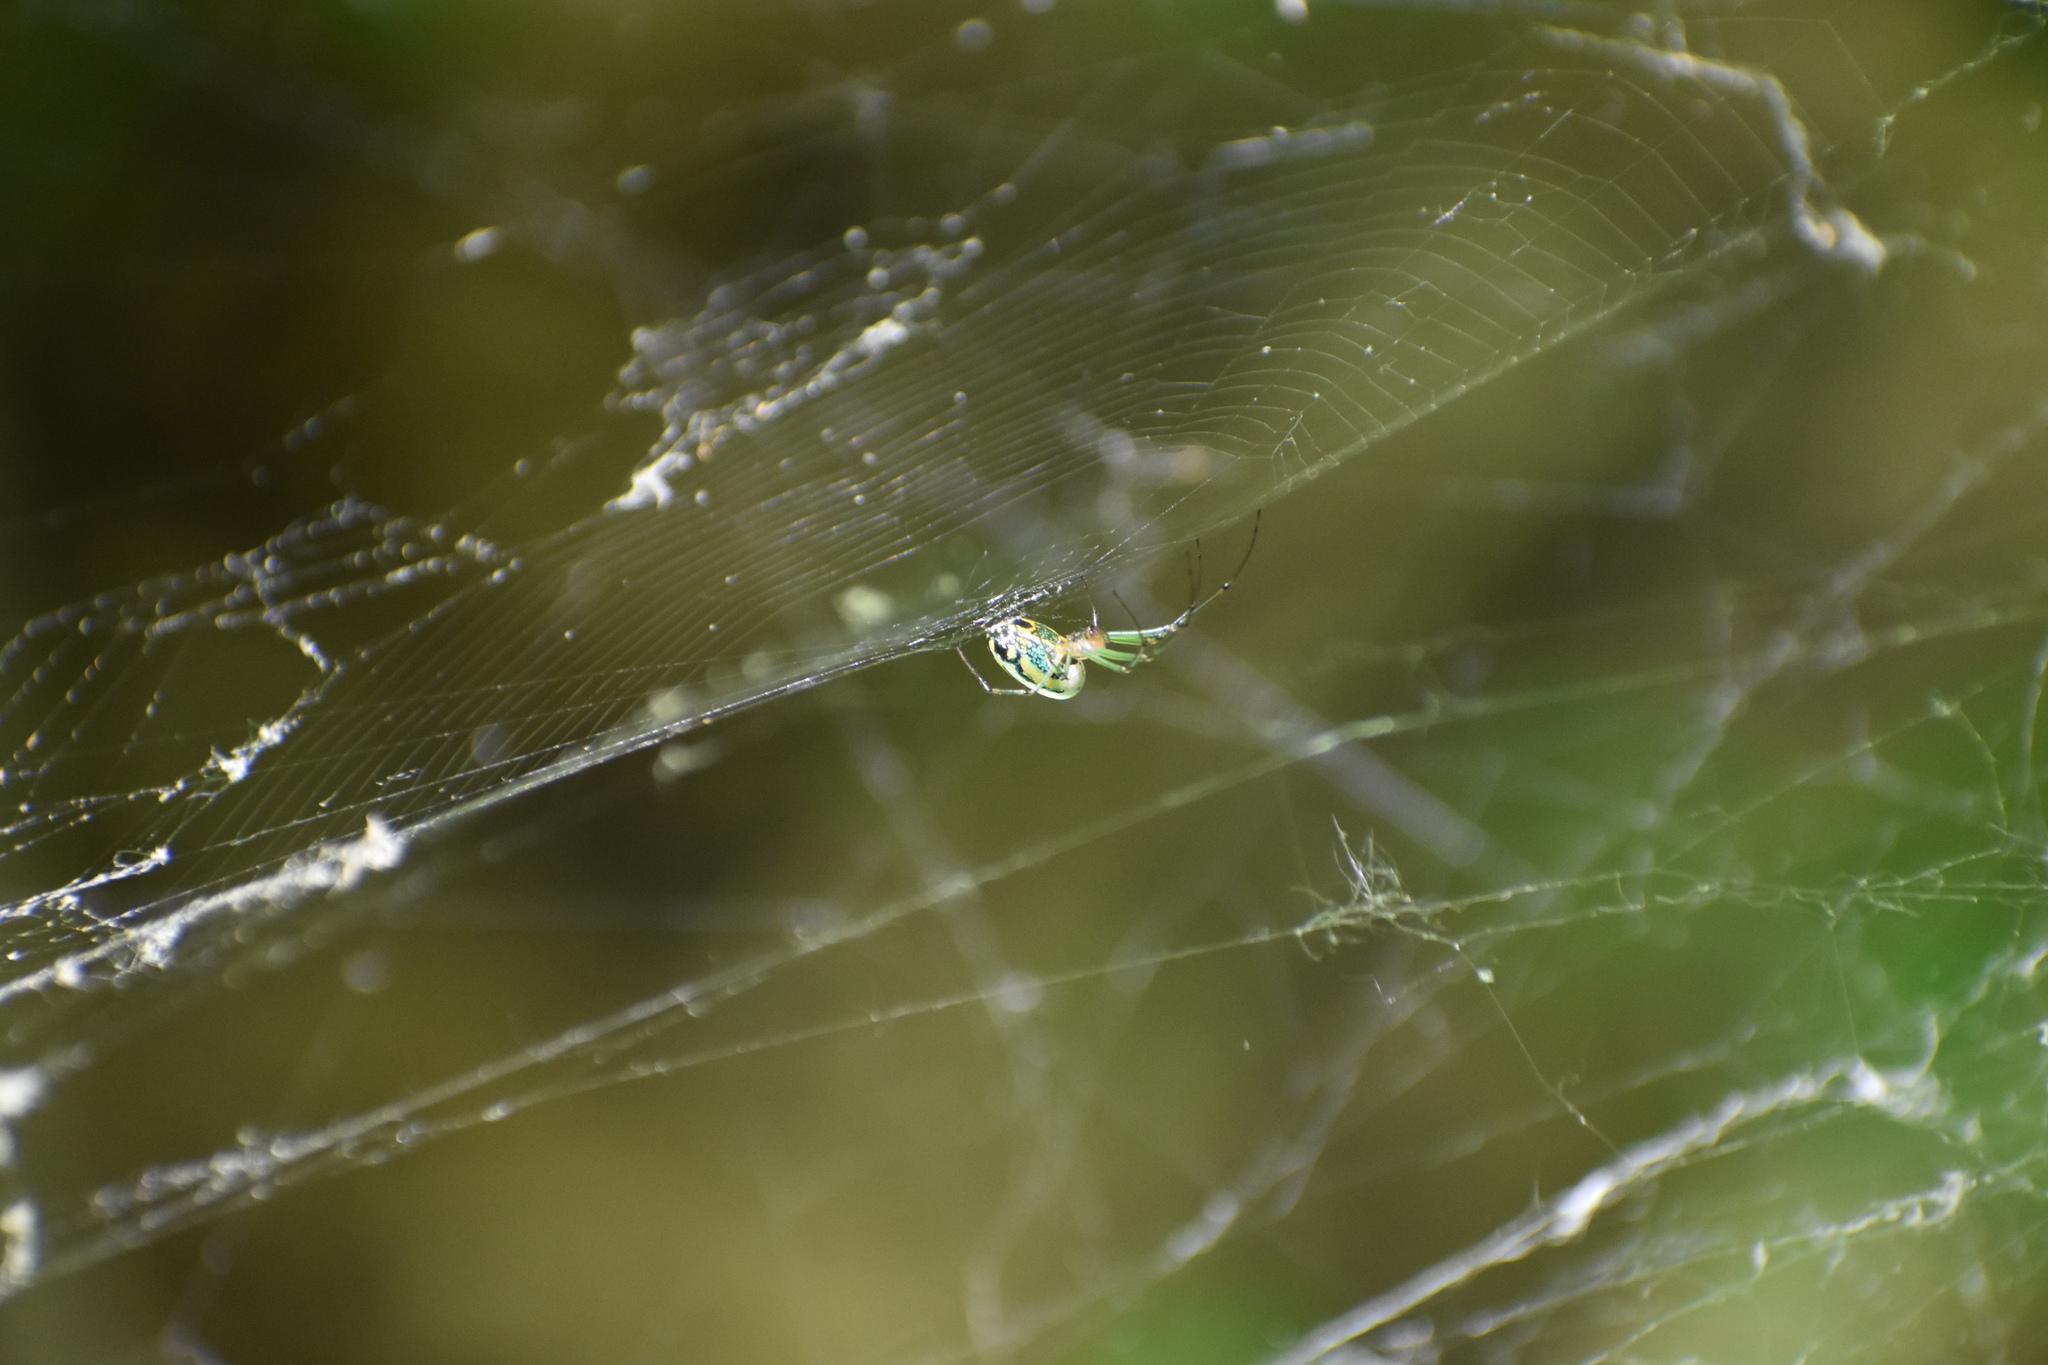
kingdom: Animalia
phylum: Arthropoda
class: Arachnida
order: Araneae
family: Tetragnathidae
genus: Leucauge
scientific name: Leucauge venusta
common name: Longjawed orb weavers
